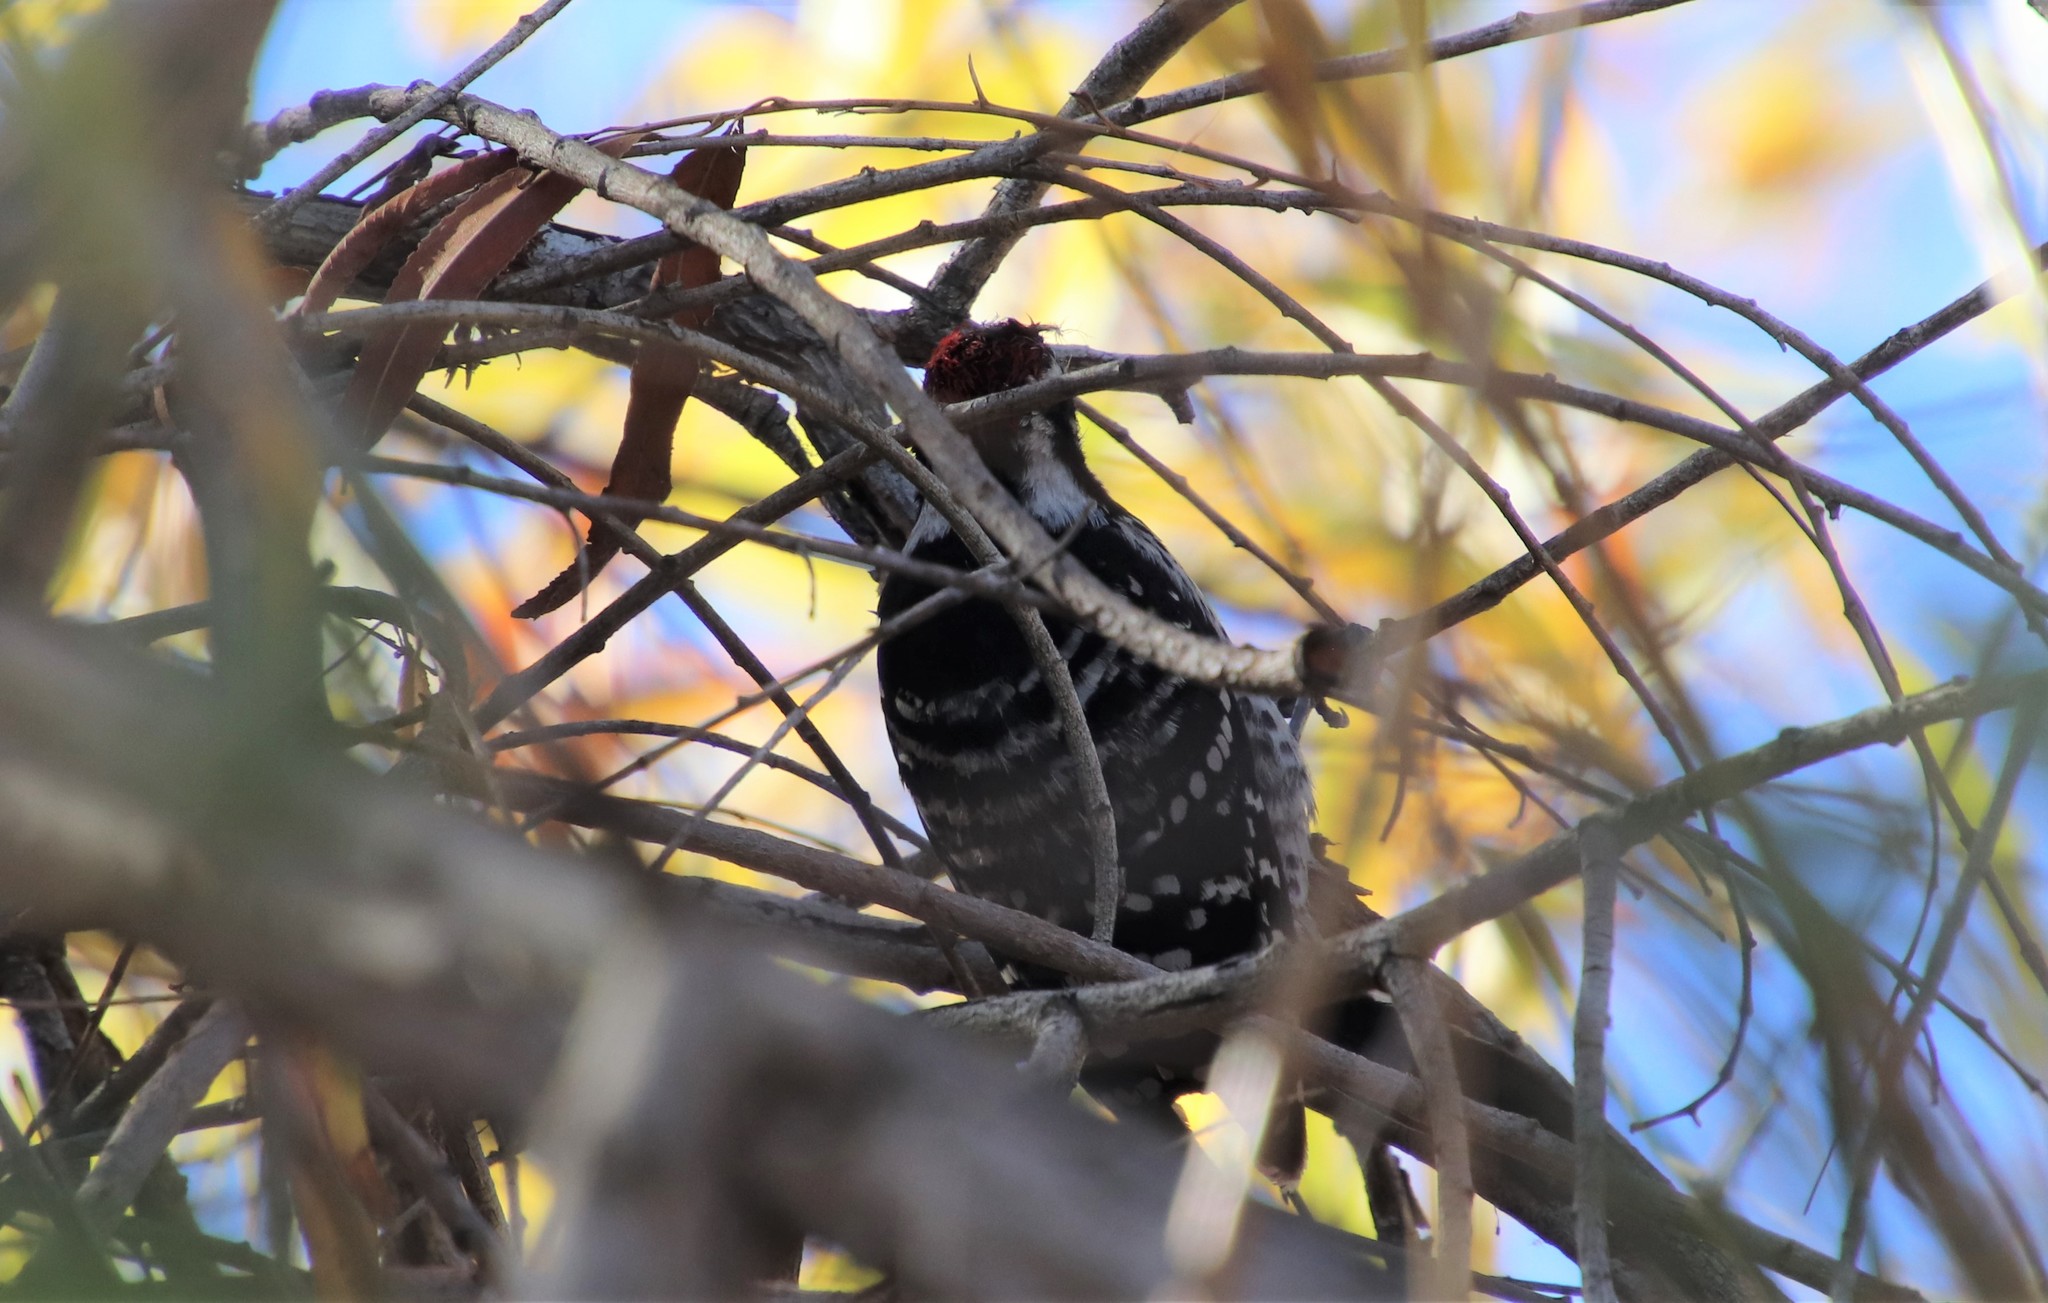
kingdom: Animalia
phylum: Chordata
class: Aves
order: Piciformes
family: Picidae
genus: Dryobates
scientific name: Dryobates nuttallii
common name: Nuttall's woodpecker
